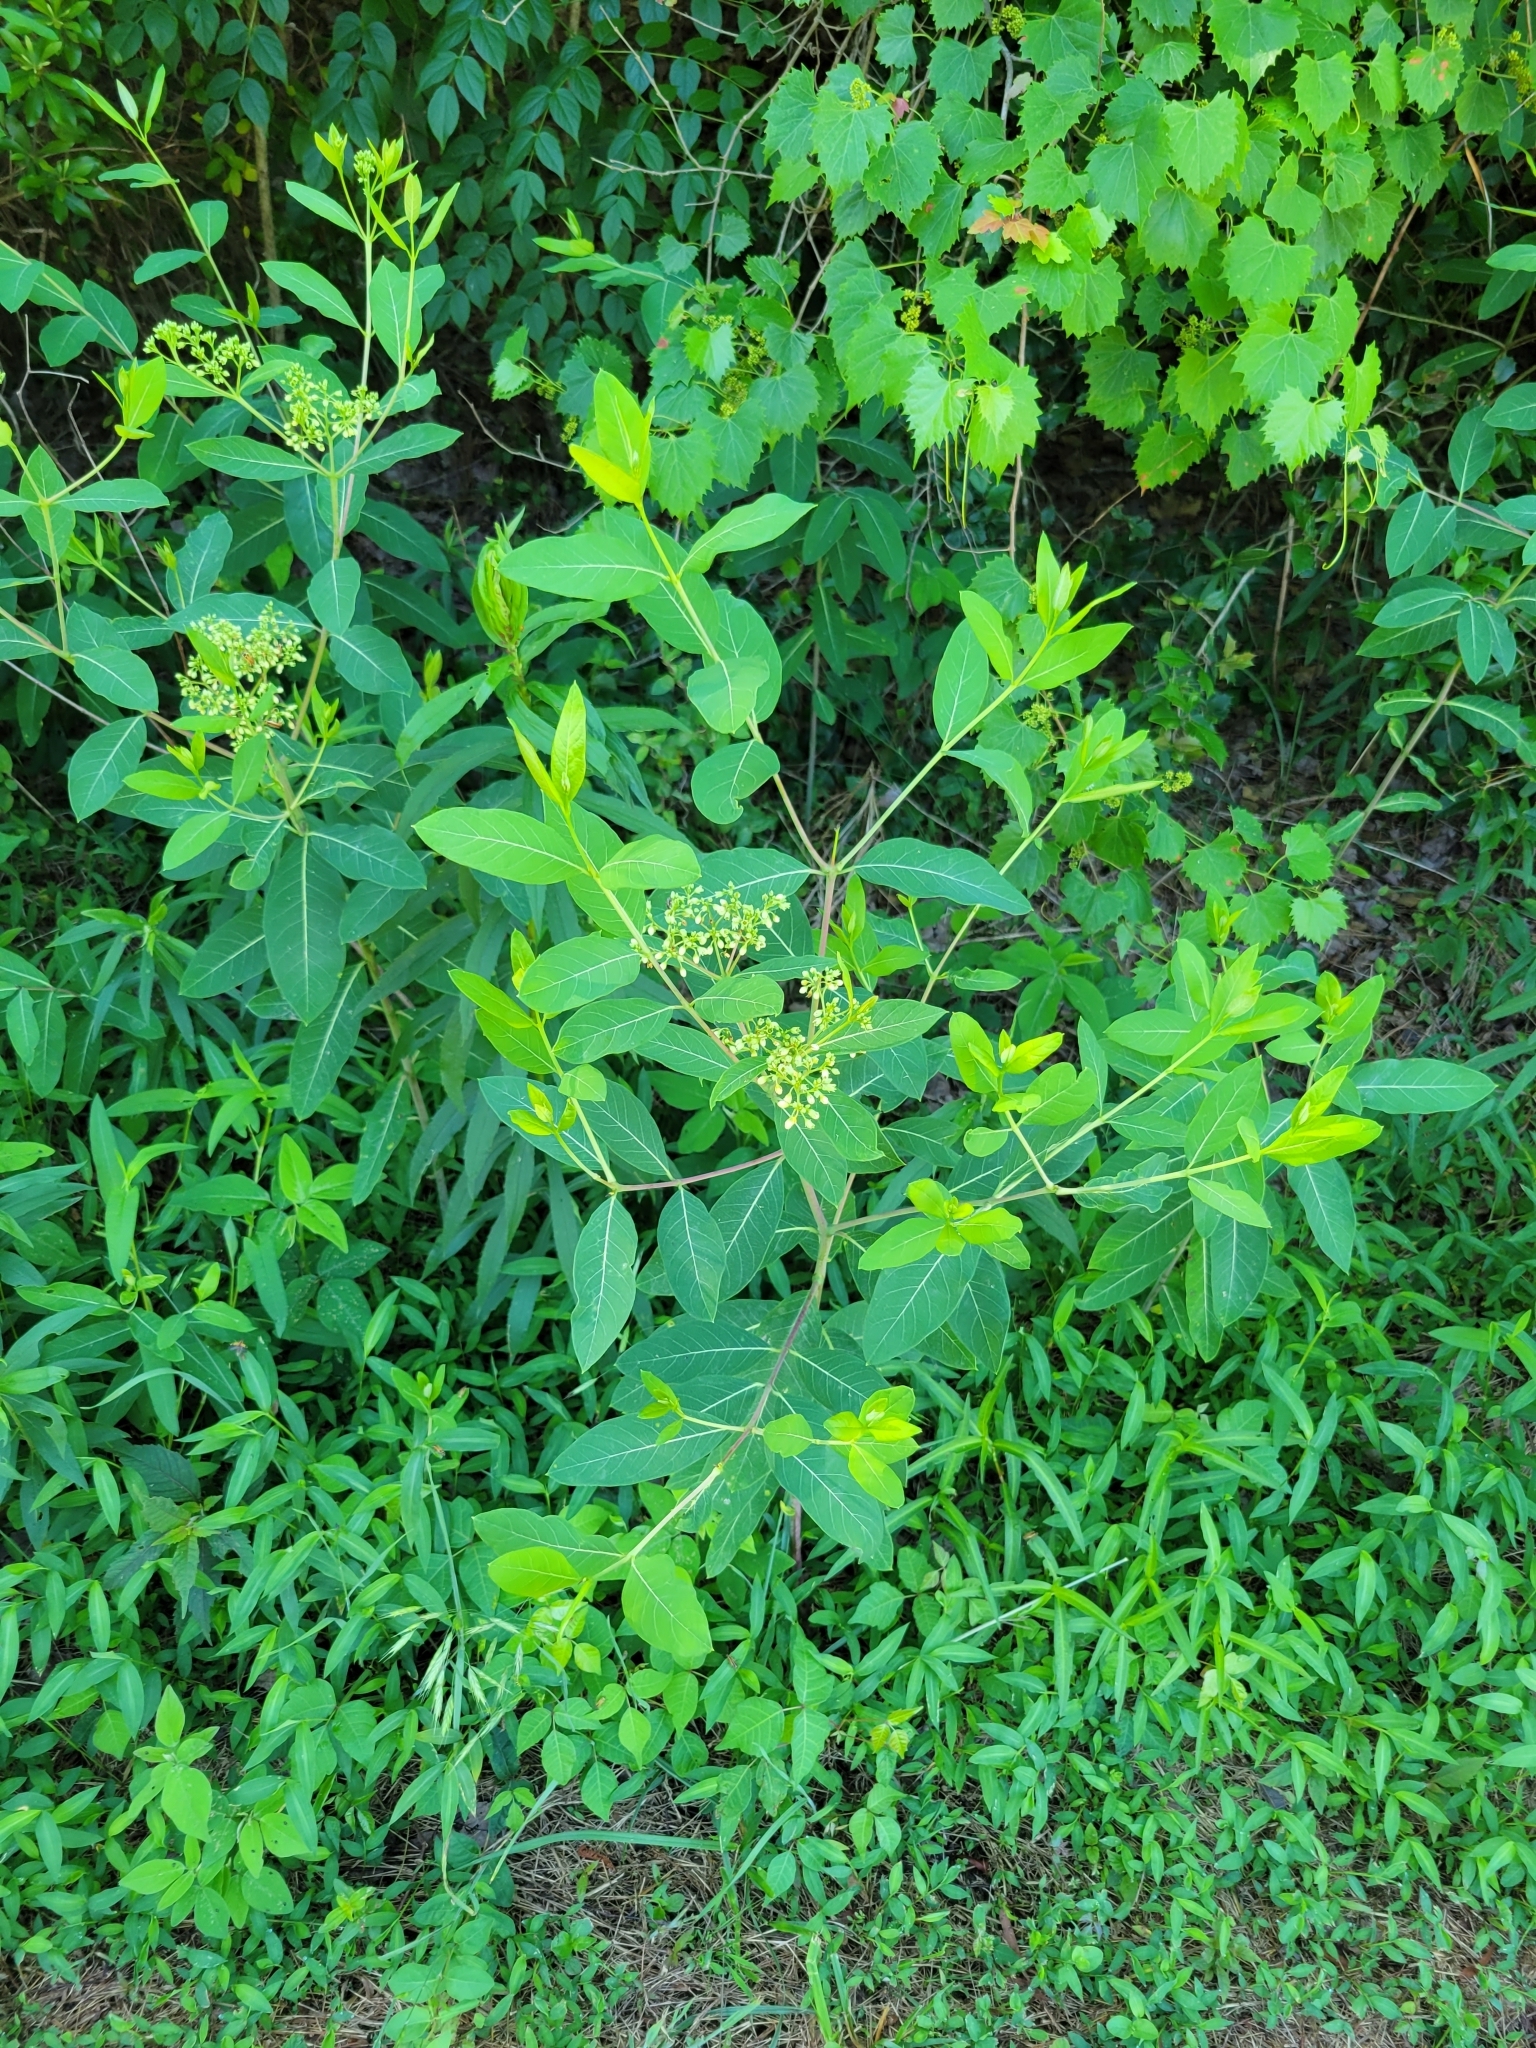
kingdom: Plantae
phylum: Tracheophyta
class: Magnoliopsida
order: Gentianales
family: Apocynaceae
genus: Apocynum
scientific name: Apocynum cannabinum
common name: Hemp dogbane
